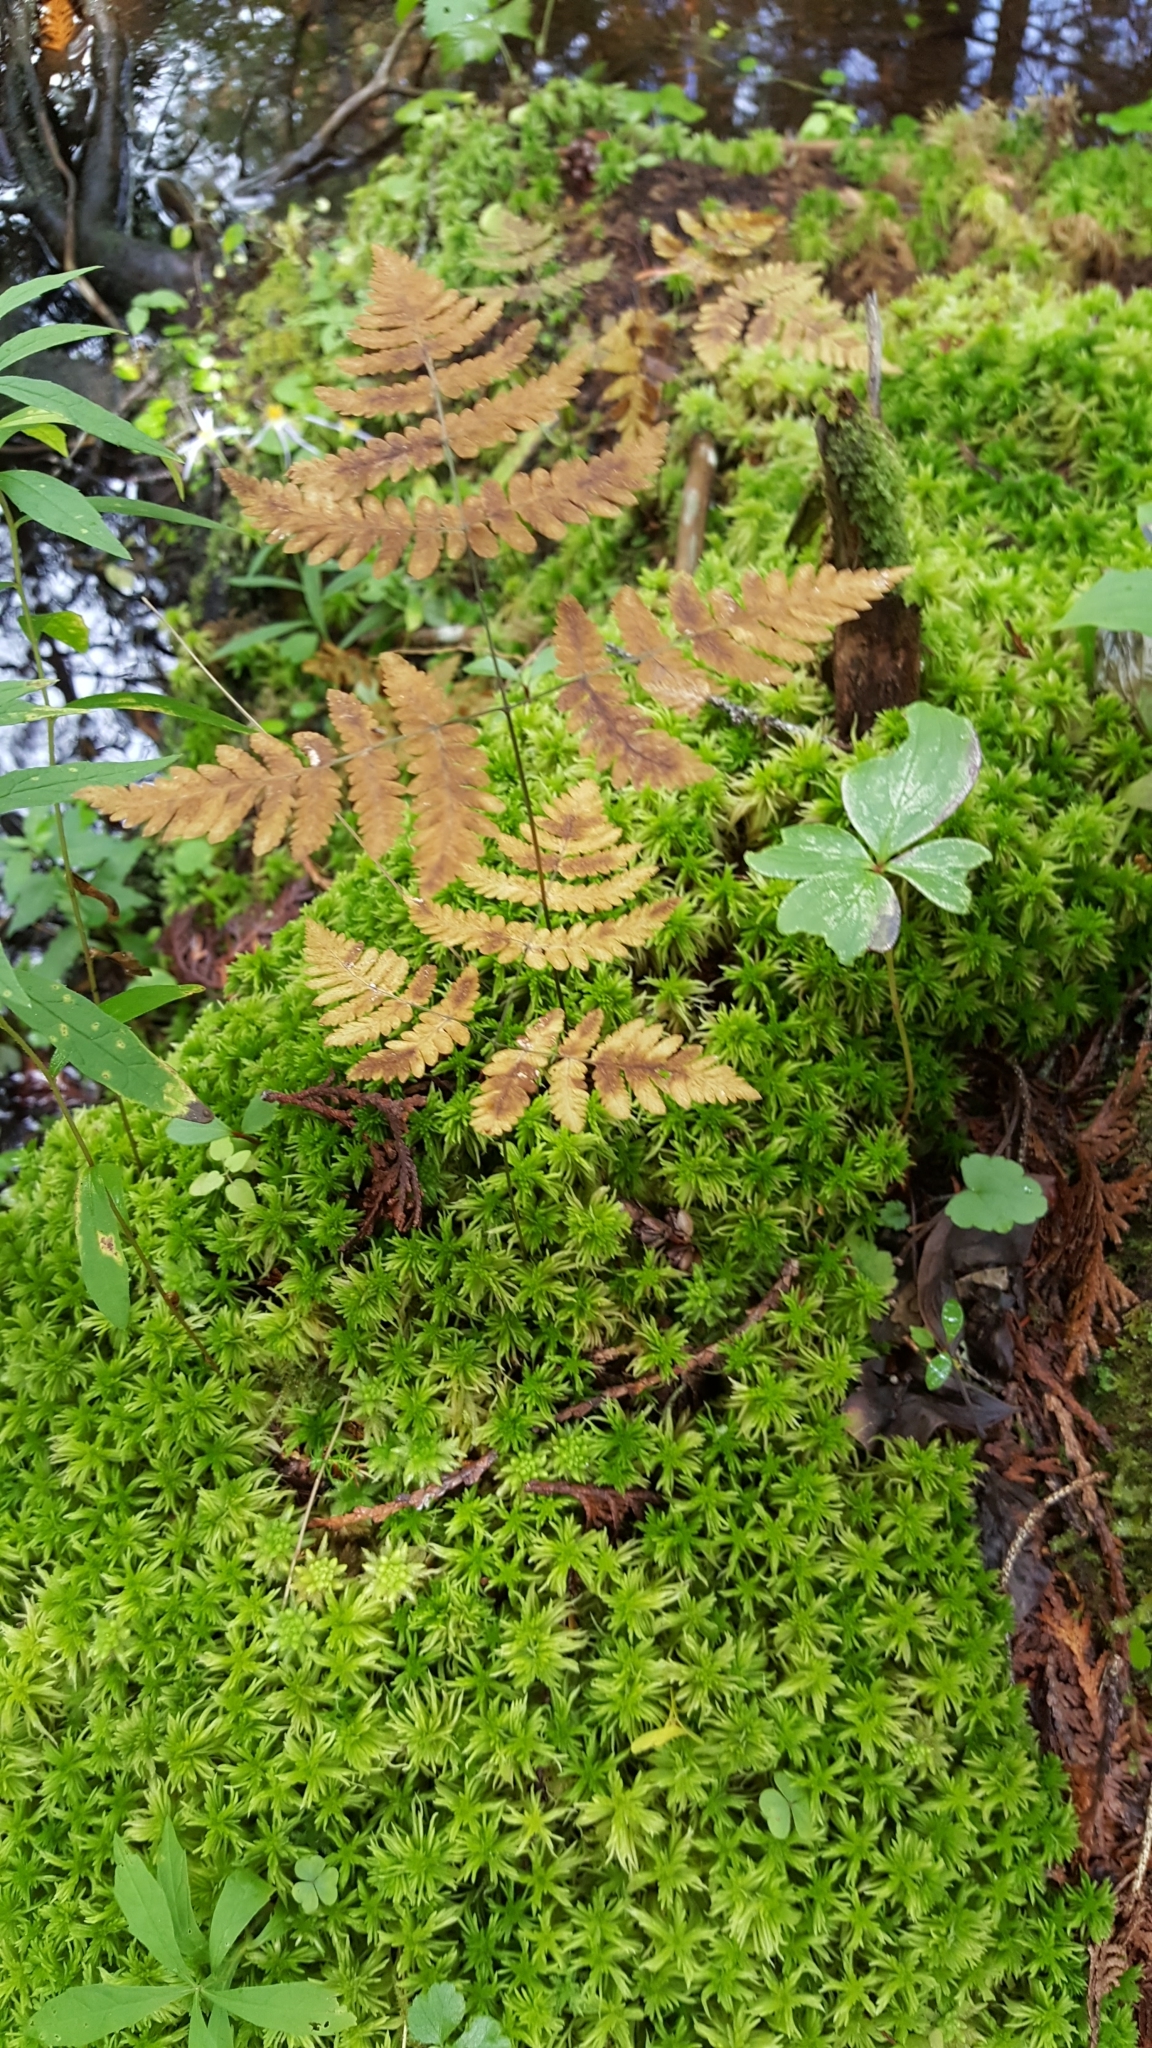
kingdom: Plantae
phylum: Tracheophyta
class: Polypodiopsida
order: Polypodiales
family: Cystopteridaceae
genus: Gymnocarpium
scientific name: Gymnocarpium dryopteris
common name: Oak fern
